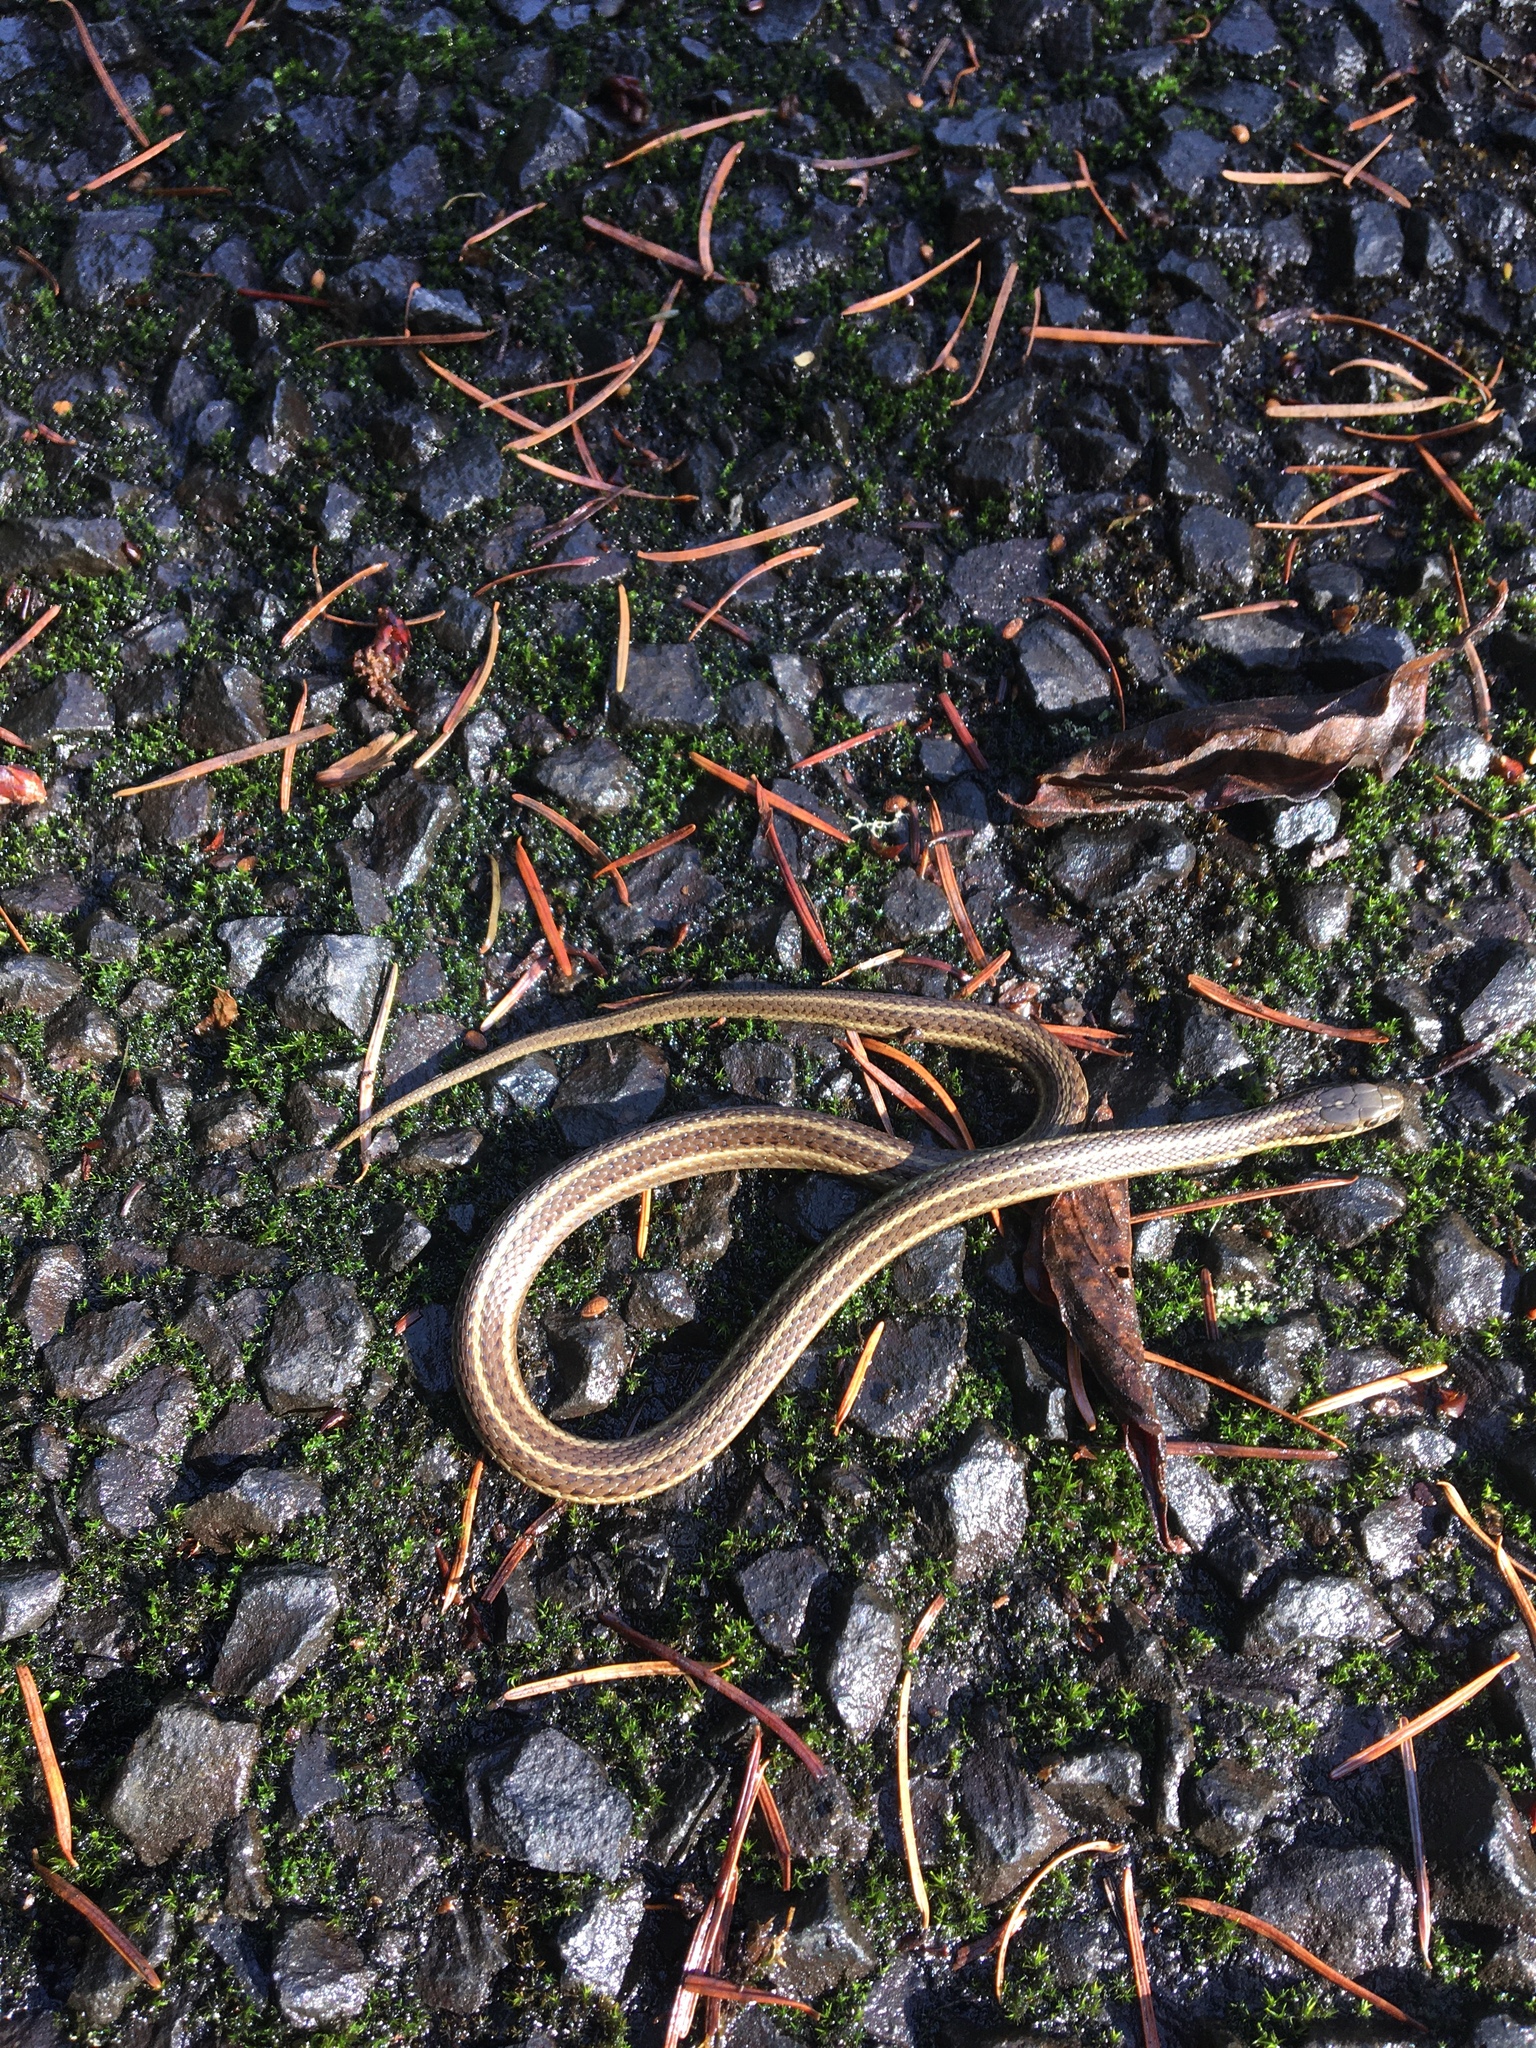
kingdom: Animalia
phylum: Chordata
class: Squamata
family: Colubridae
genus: Thamnophis
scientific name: Thamnophis ordinoides
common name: Northwestern garter snake
